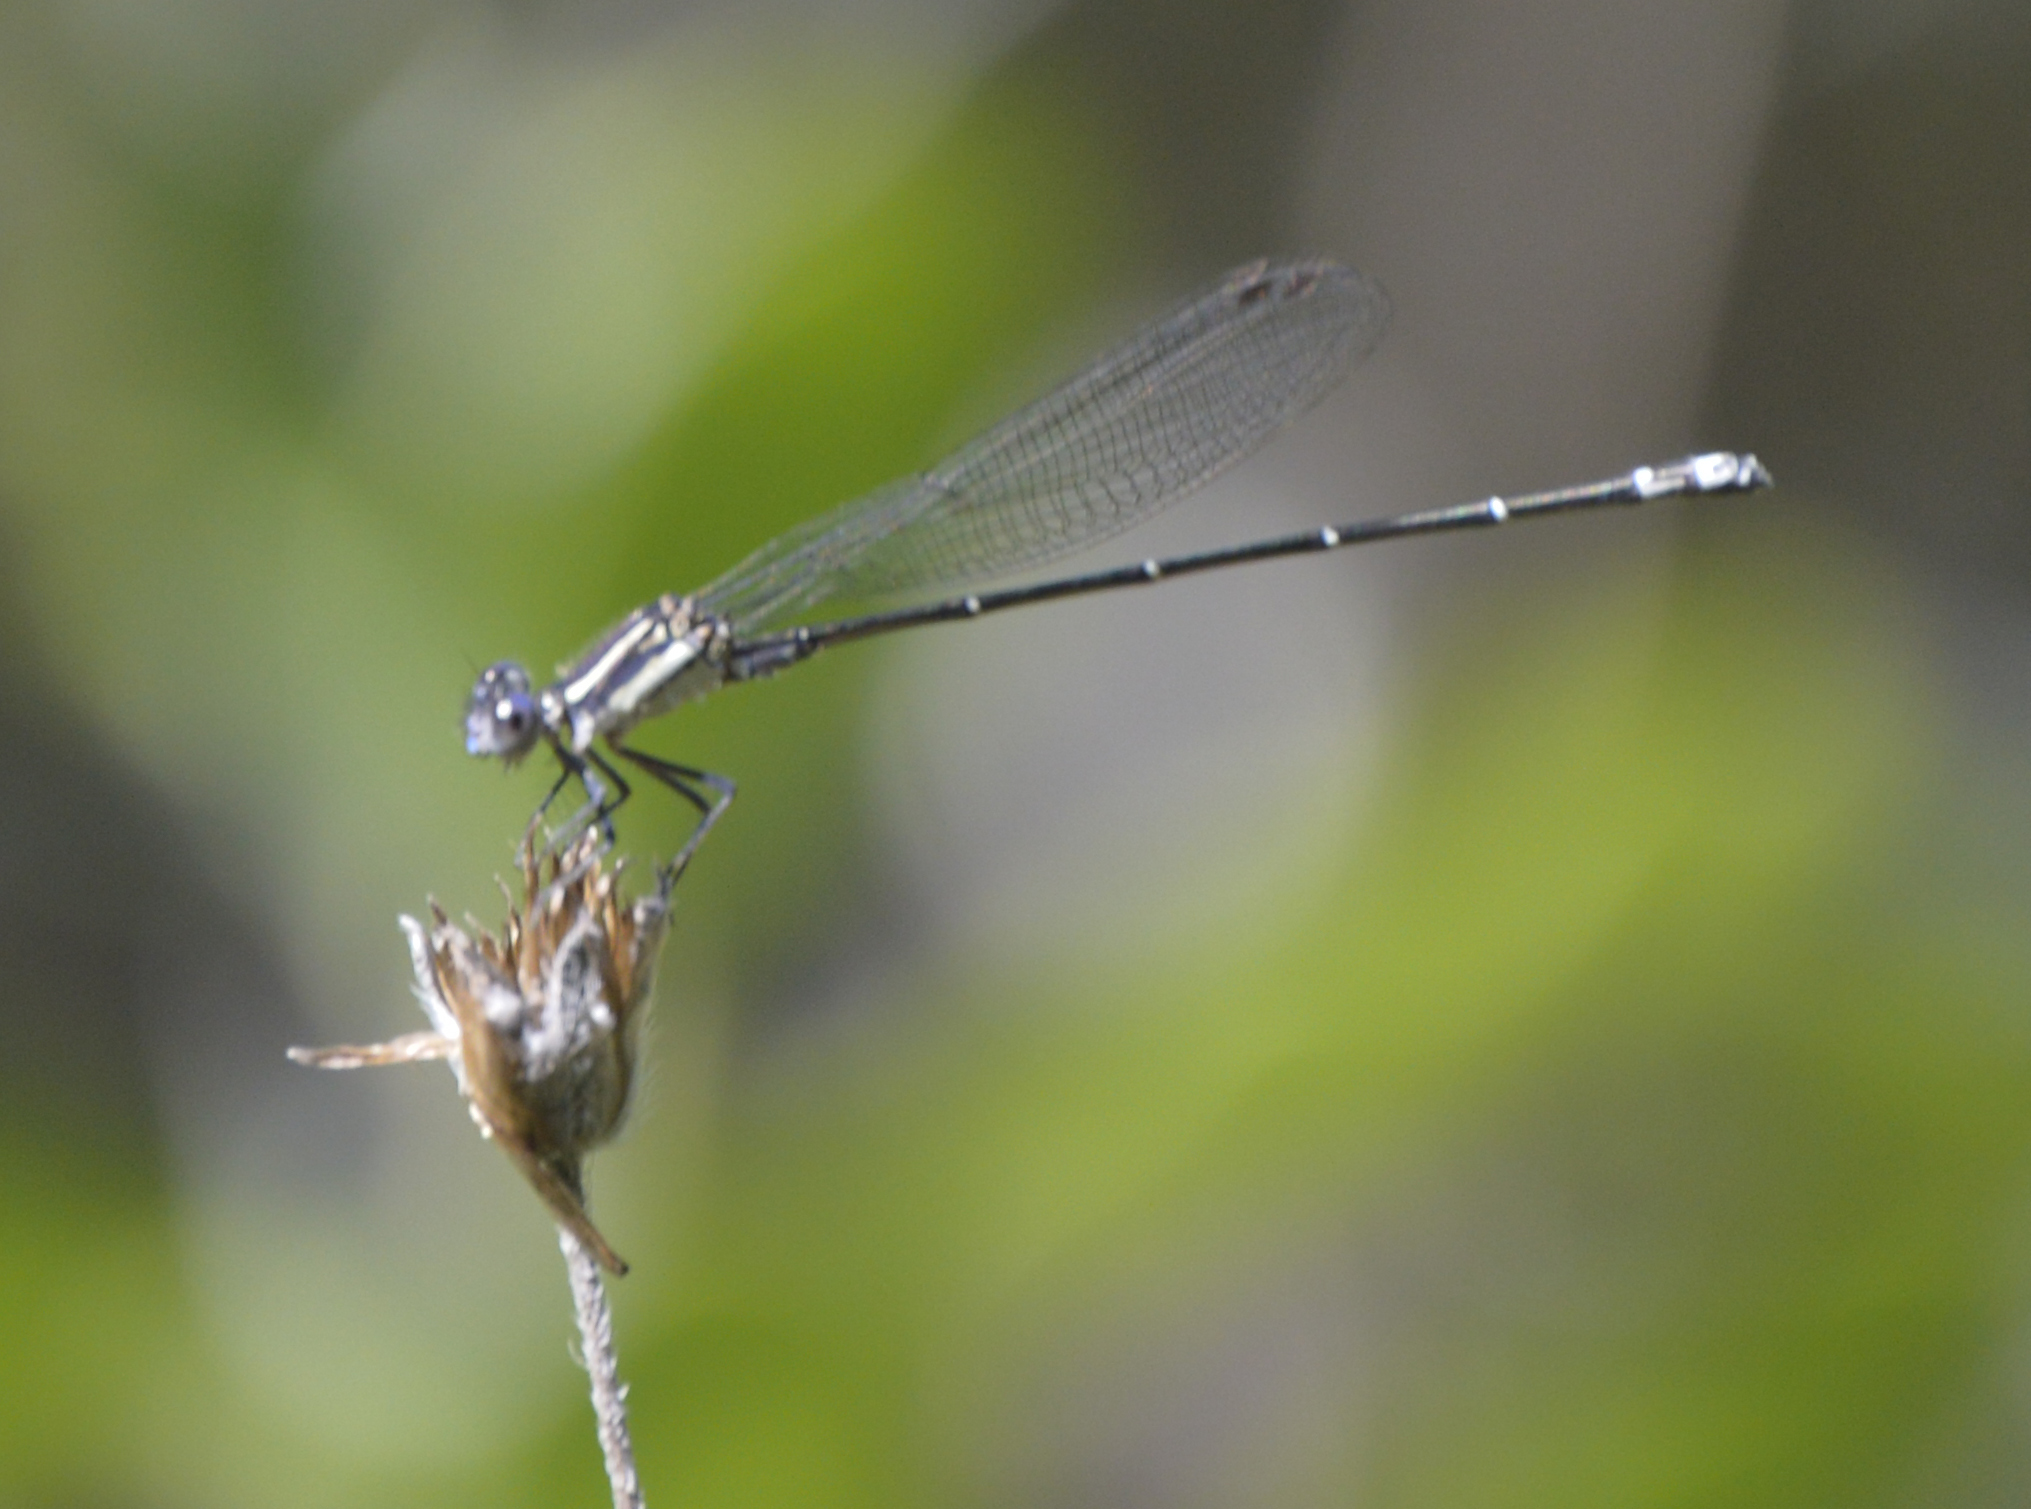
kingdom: Animalia
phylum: Arthropoda
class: Insecta
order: Odonata
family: Coenagrionidae
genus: Argia
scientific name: Argia translata
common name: Dusky dancer
